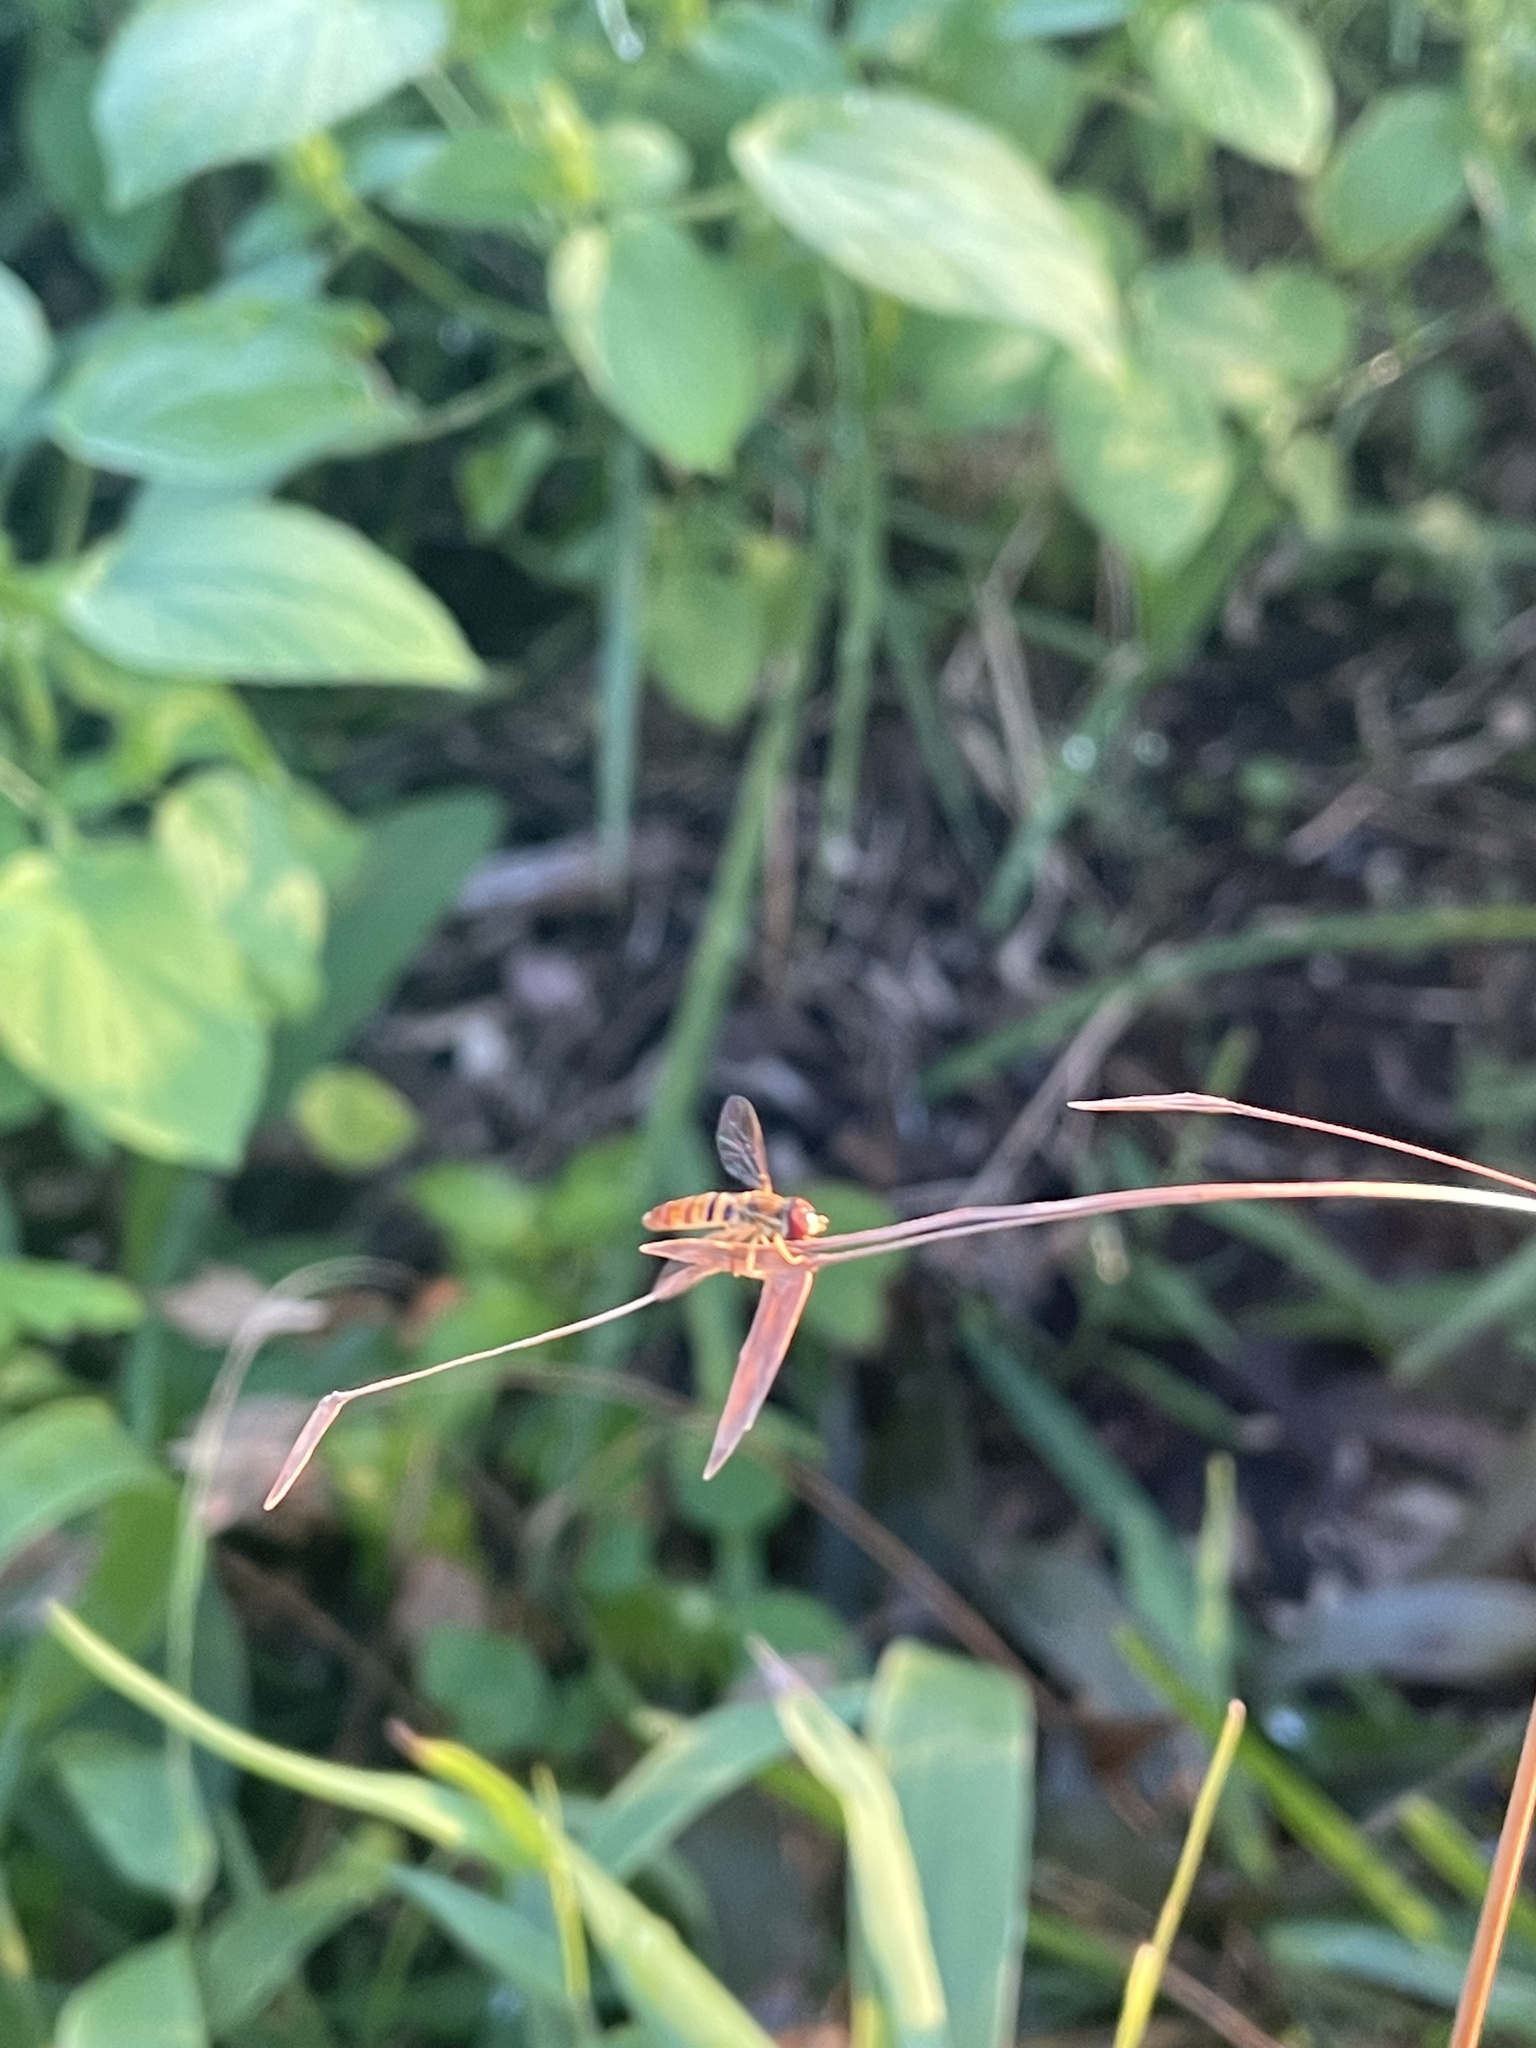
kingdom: Animalia
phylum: Arthropoda
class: Insecta
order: Diptera
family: Syrphidae
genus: Toxomerus
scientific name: Toxomerus politus
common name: Maize calligrapher
